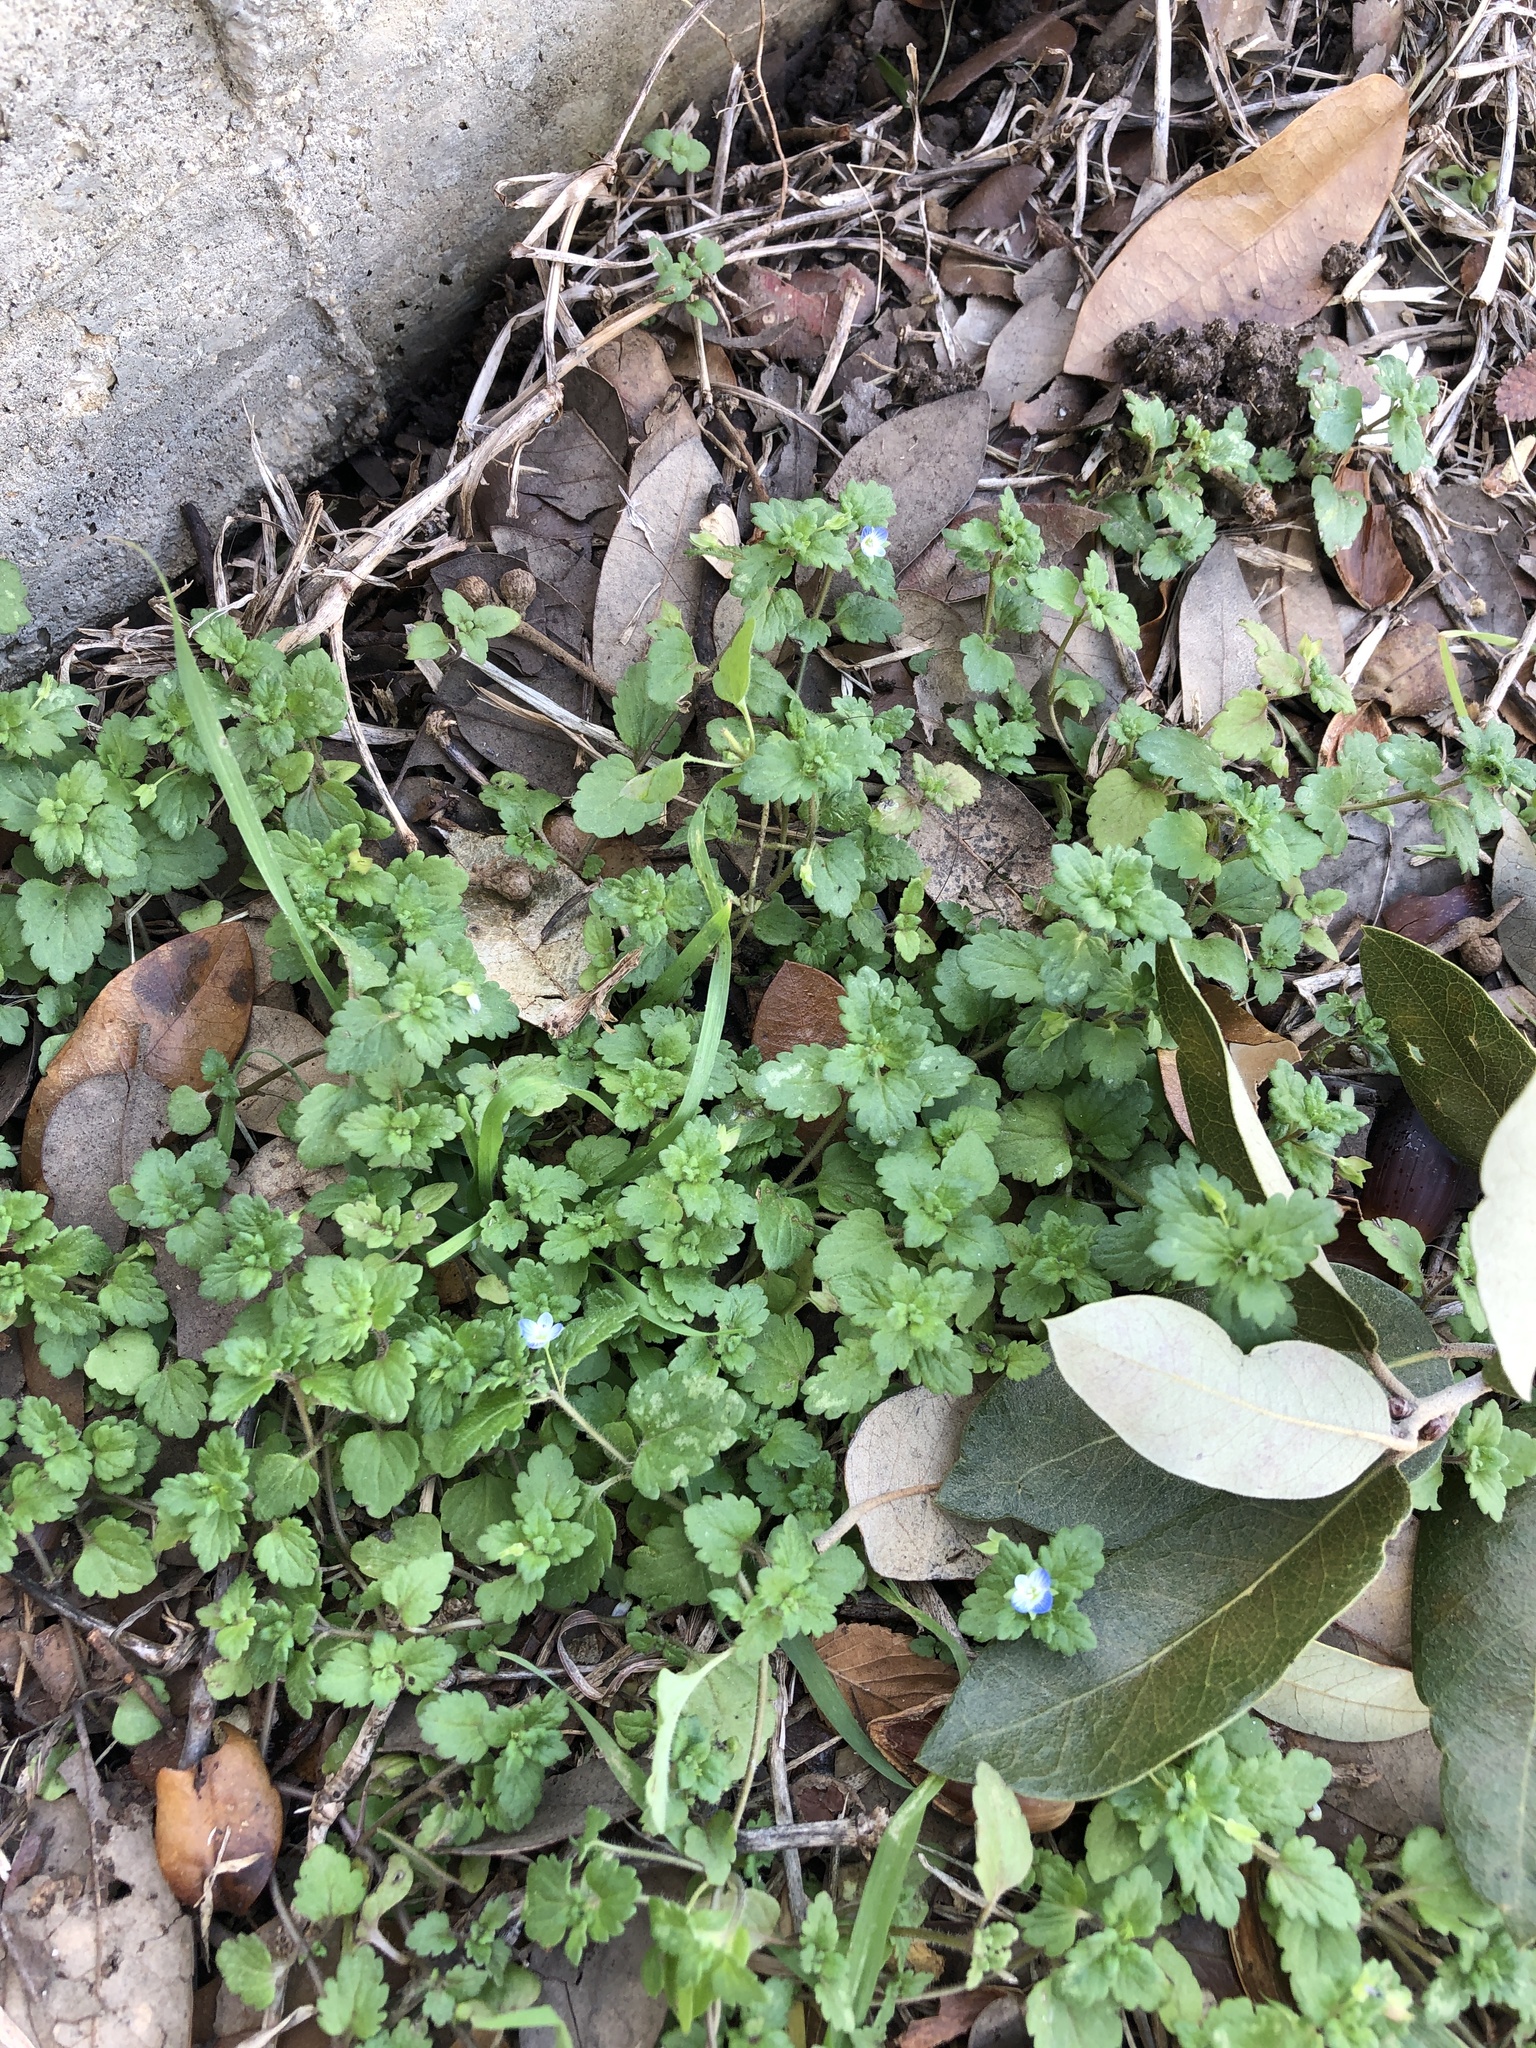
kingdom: Plantae
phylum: Tracheophyta
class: Magnoliopsida
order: Lamiales
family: Plantaginaceae
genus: Veronica
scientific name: Veronica persica
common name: Common field-speedwell
